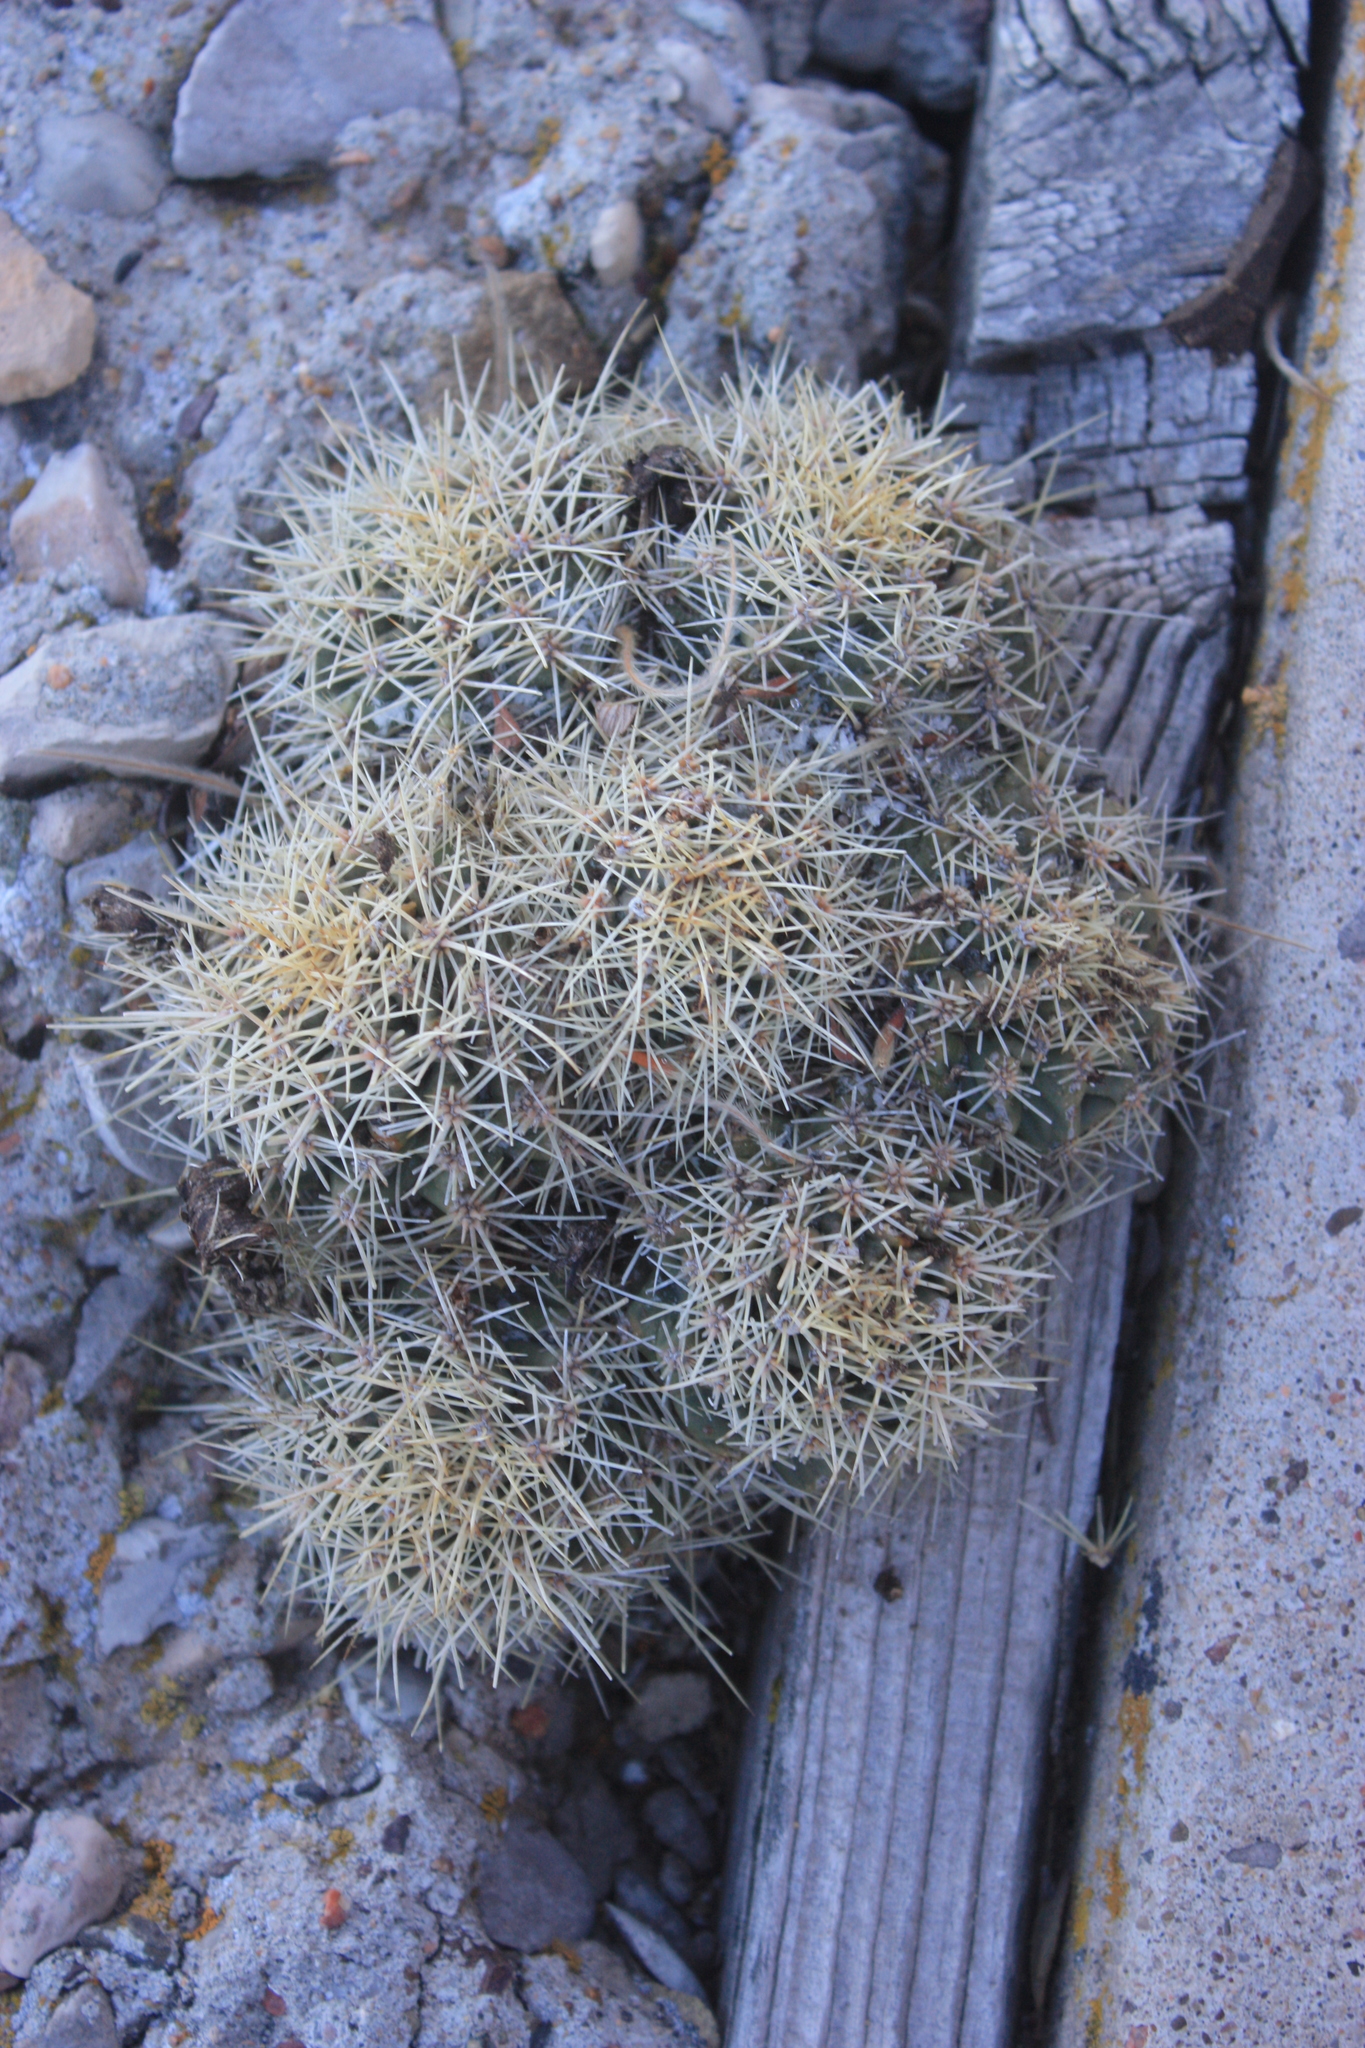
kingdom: Plantae
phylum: Tracheophyta
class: Magnoliopsida
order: Caryophyllales
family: Cactaceae
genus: Echinocereus
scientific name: Echinocereus coccineus
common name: Scarlet hedgehog cactus
